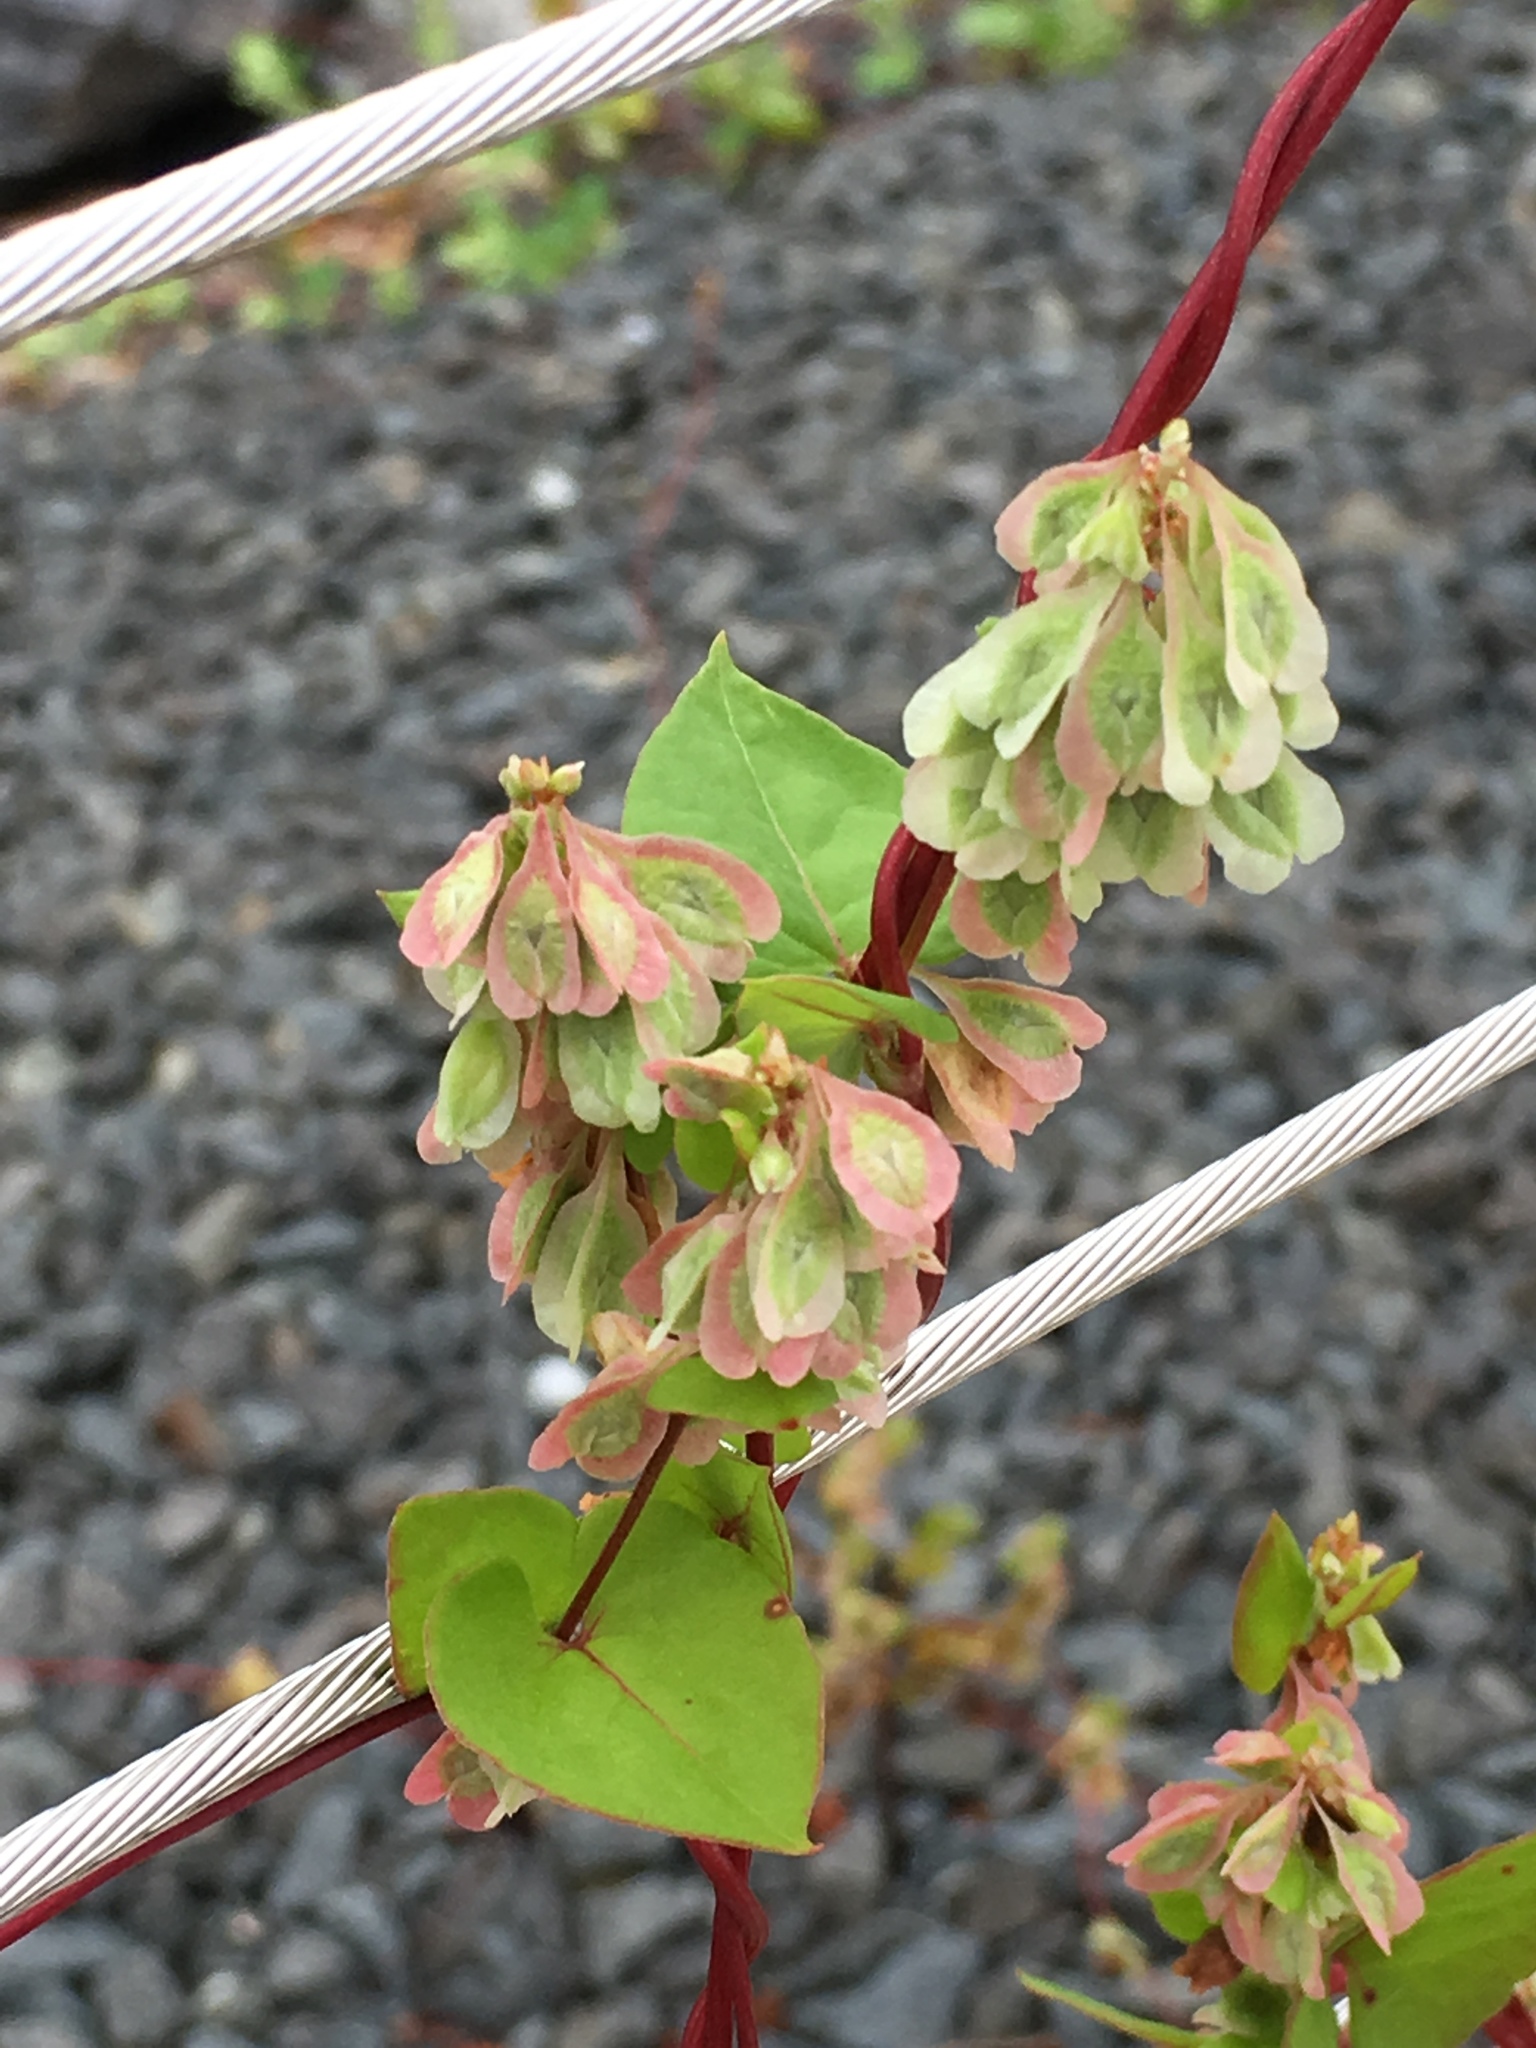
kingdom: Plantae
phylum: Tracheophyta
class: Magnoliopsida
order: Caryophyllales
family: Polygonaceae
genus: Fallopia
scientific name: Fallopia scandens
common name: Climbing false buckwheat
